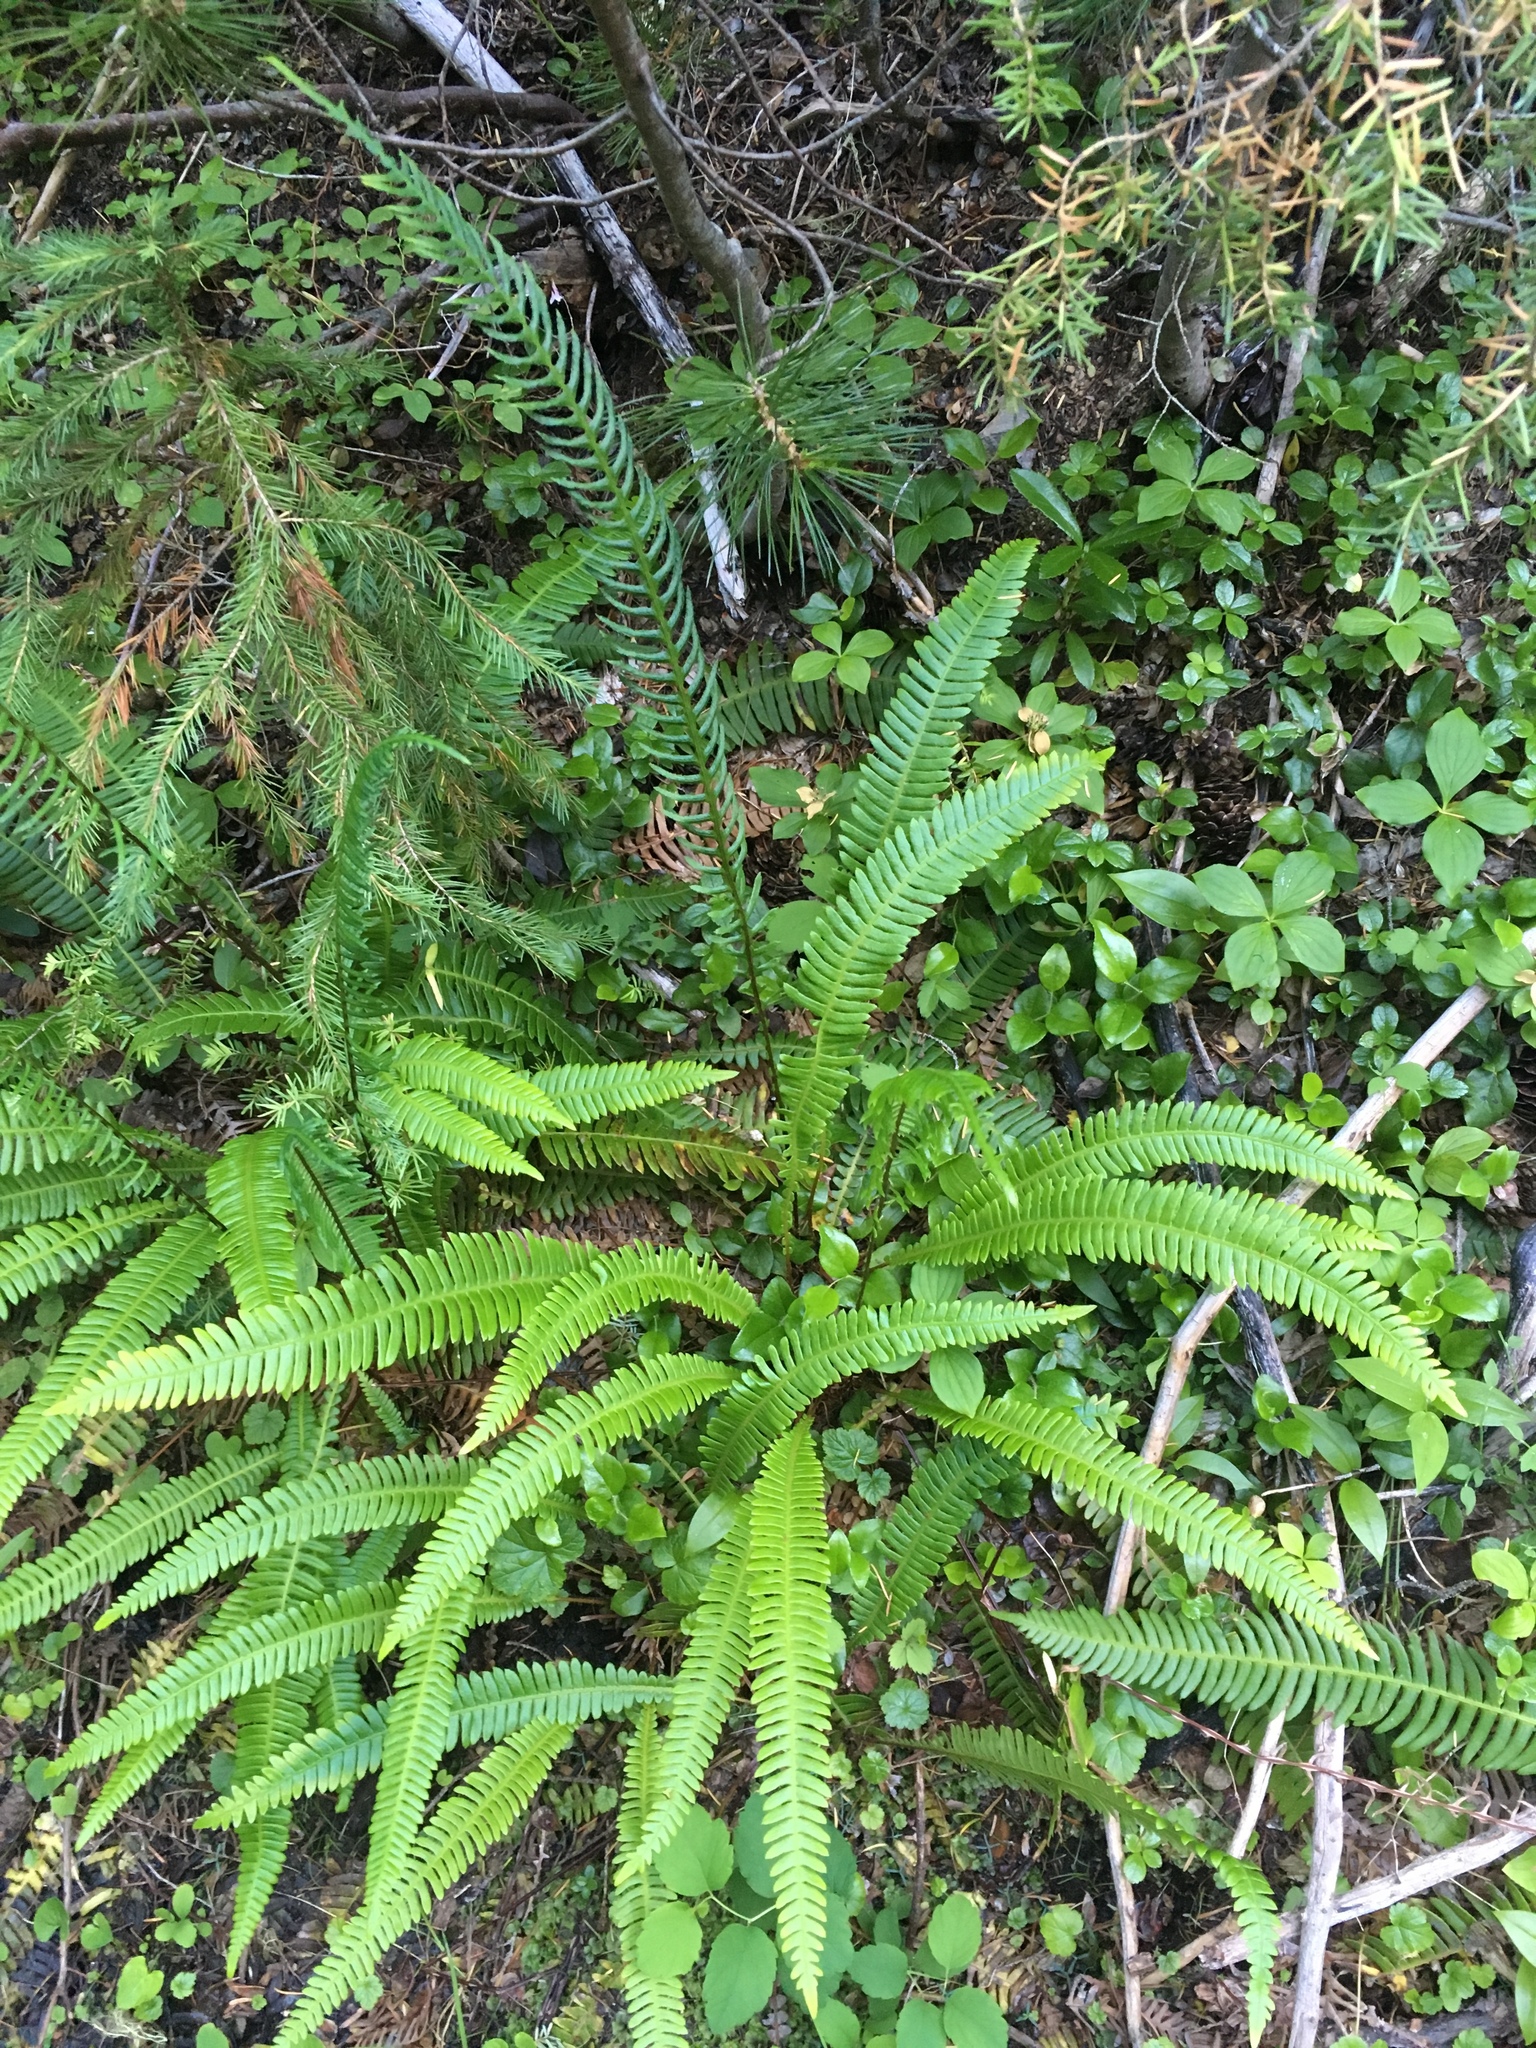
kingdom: Plantae
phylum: Tracheophyta
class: Polypodiopsida
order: Polypodiales
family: Blechnaceae
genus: Struthiopteris
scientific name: Struthiopteris spicant
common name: Deer fern
